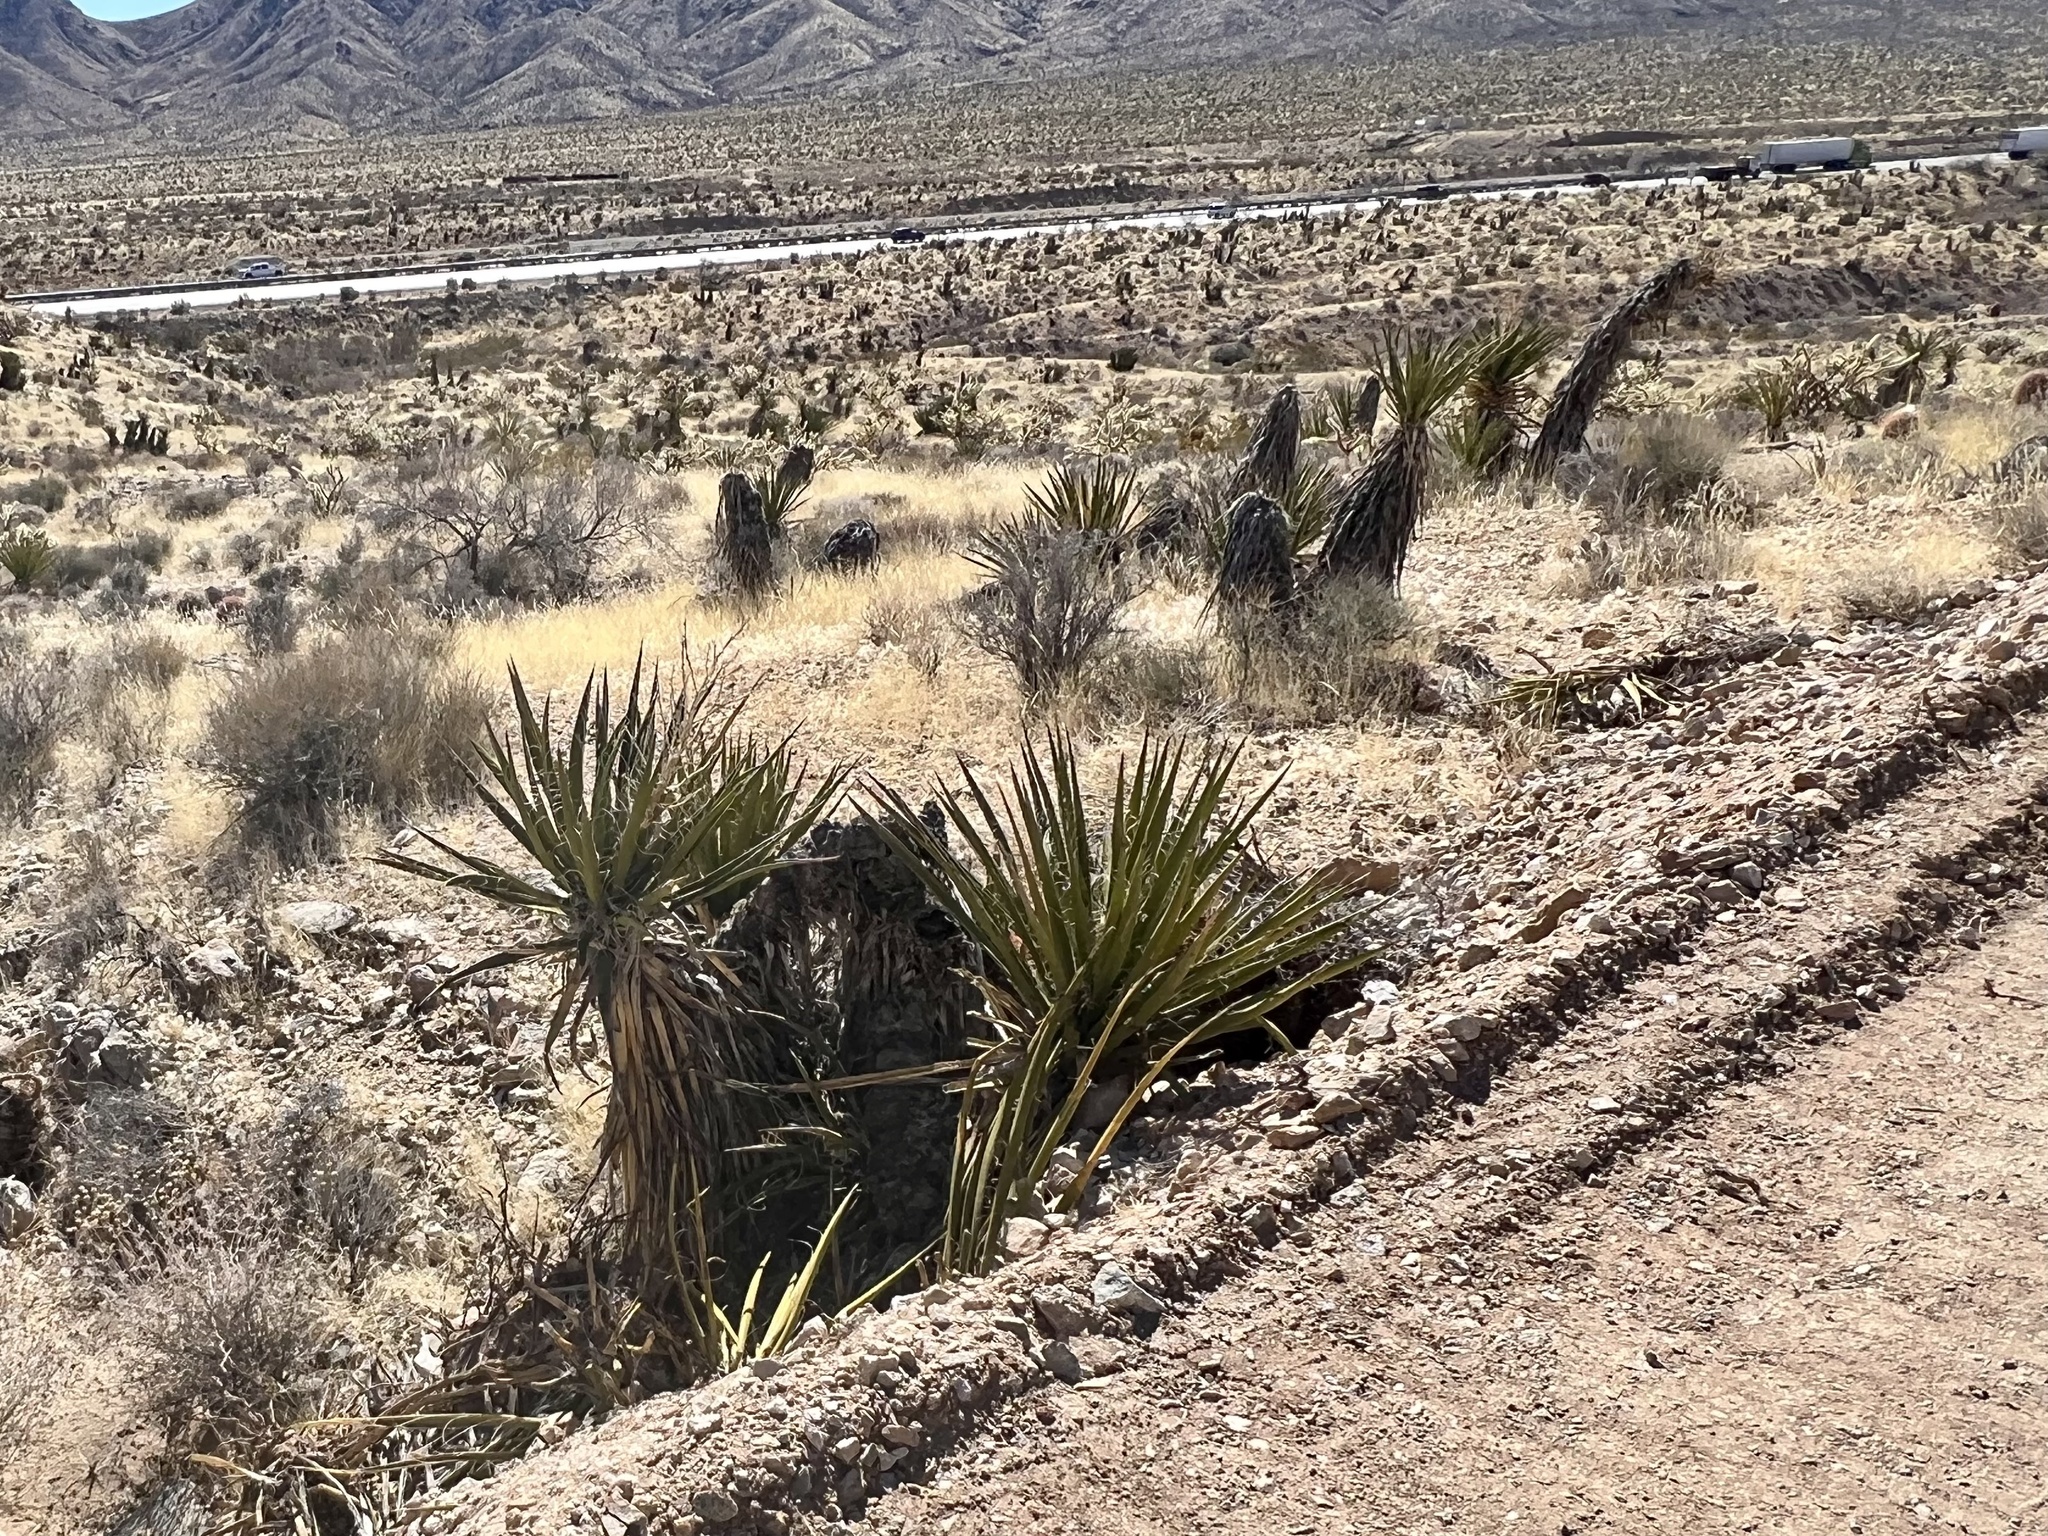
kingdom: Plantae
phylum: Tracheophyta
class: Liliopsida
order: Asparagales
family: Asparagaceae
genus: Yucca
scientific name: Yucca schidigera
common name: Mojave yucca
